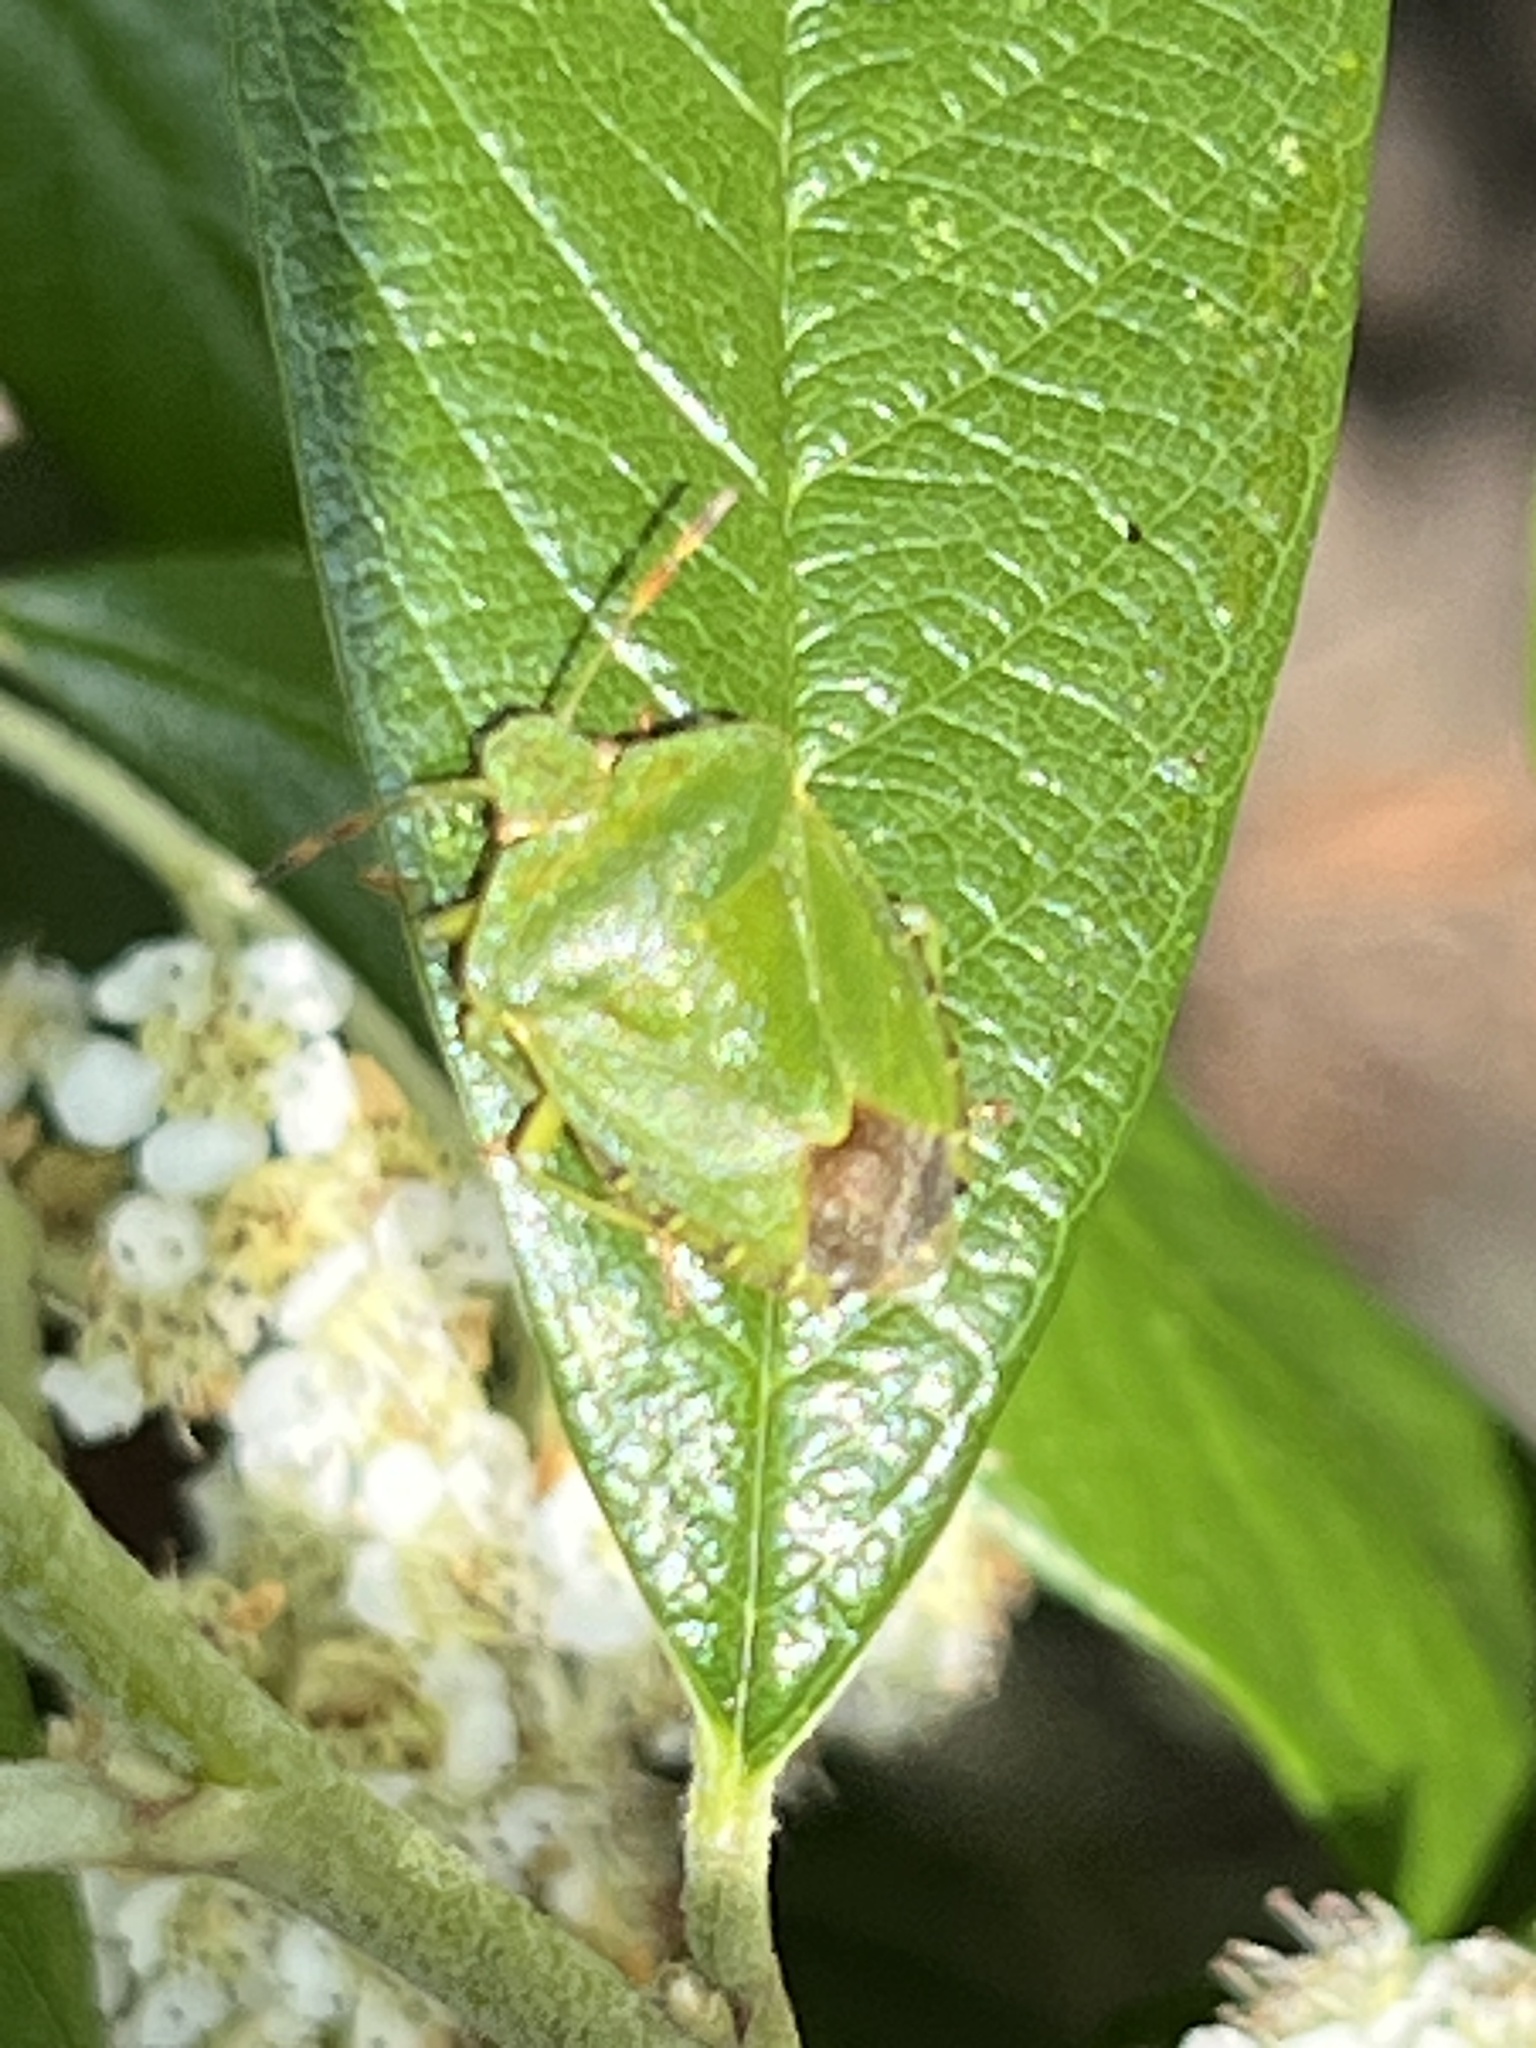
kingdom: Animalia
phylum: Arthropoda
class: Insecta
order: Hemiptera
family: Pentatomidae
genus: Palomena
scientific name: Palomena prasina
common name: Green shieldbug
